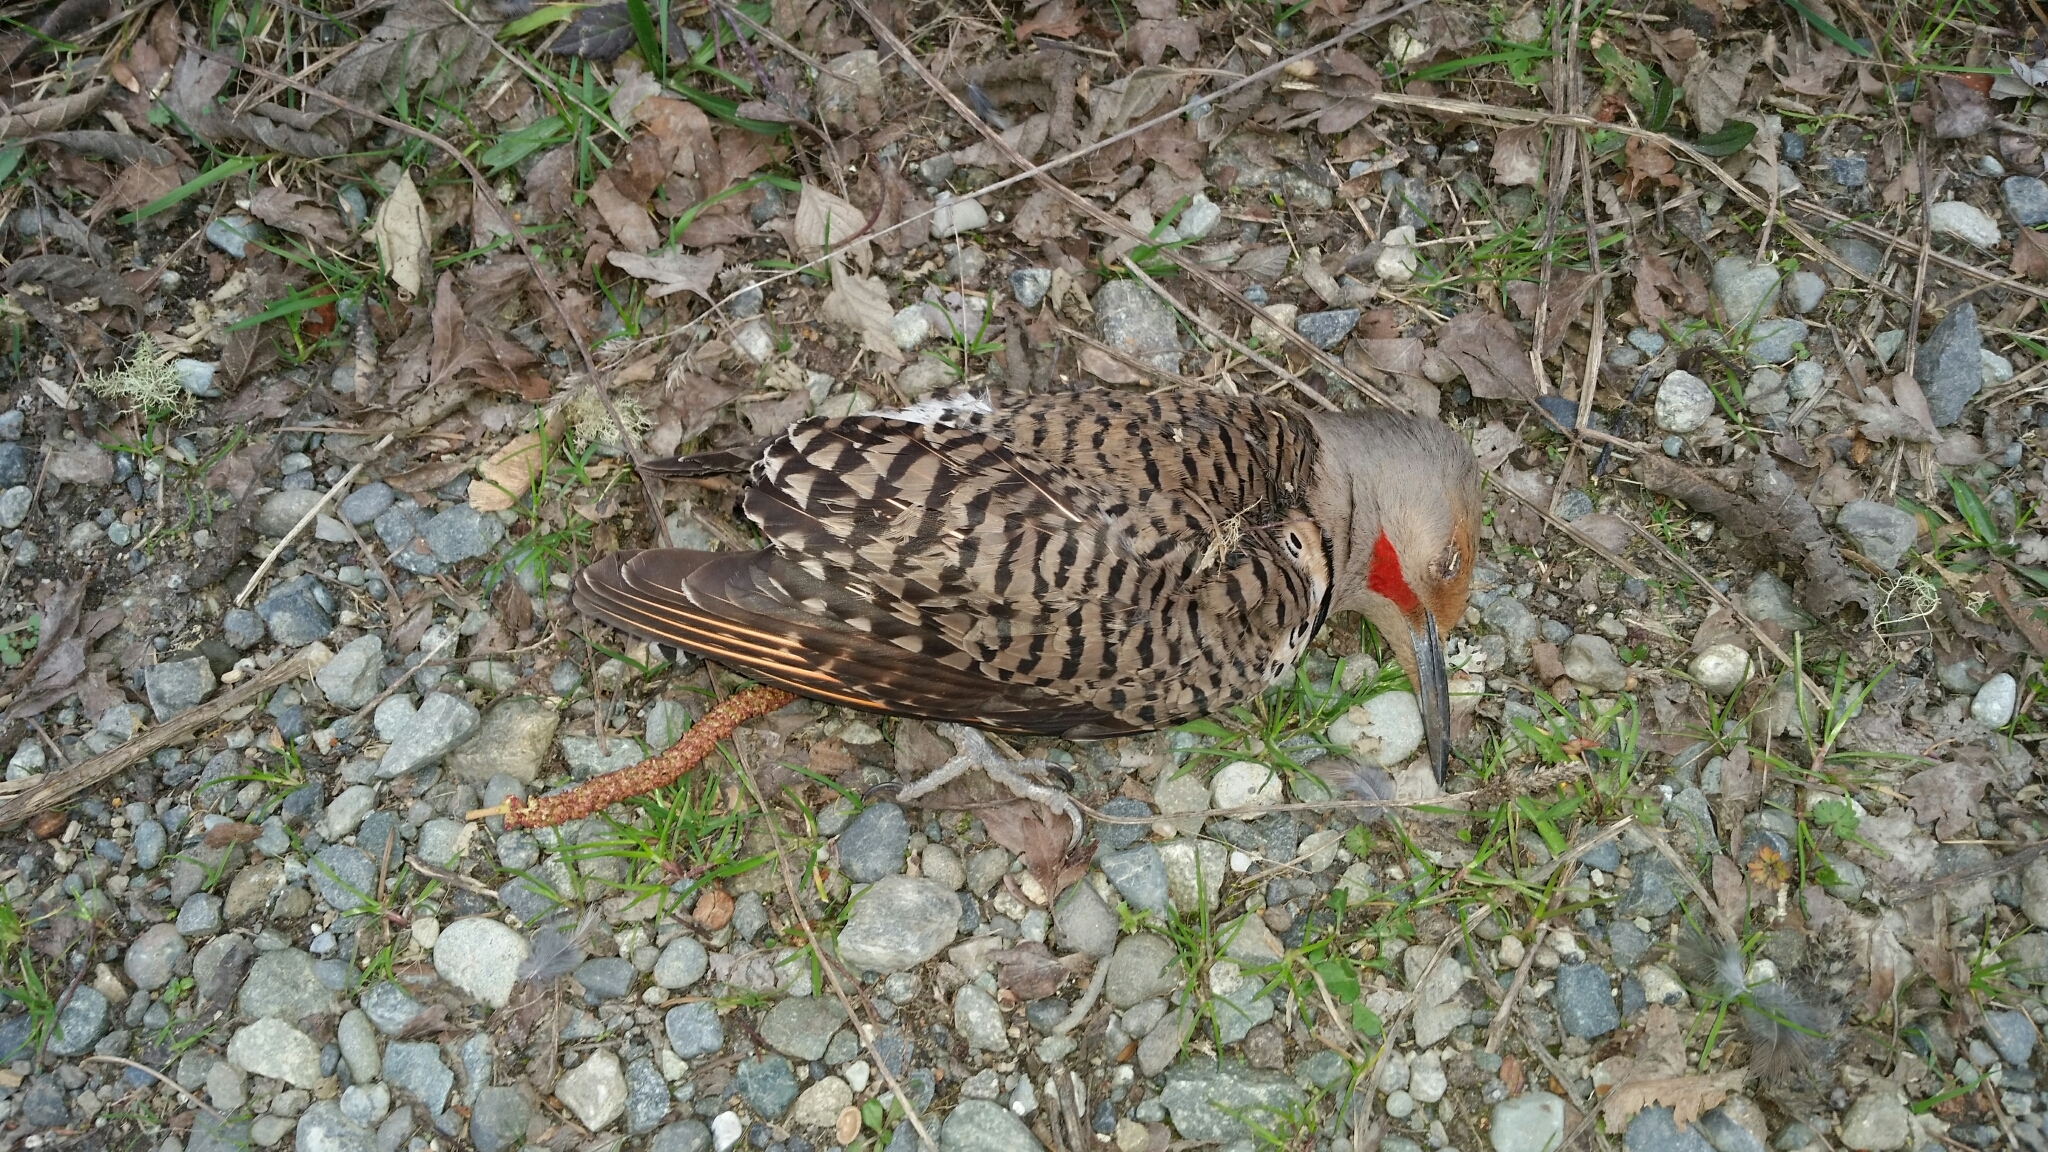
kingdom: Animalia
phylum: Chordata
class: Aves
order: Piciformes
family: Picidae
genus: Colaptes
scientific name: Colaptes auratus
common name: Northern flicker
